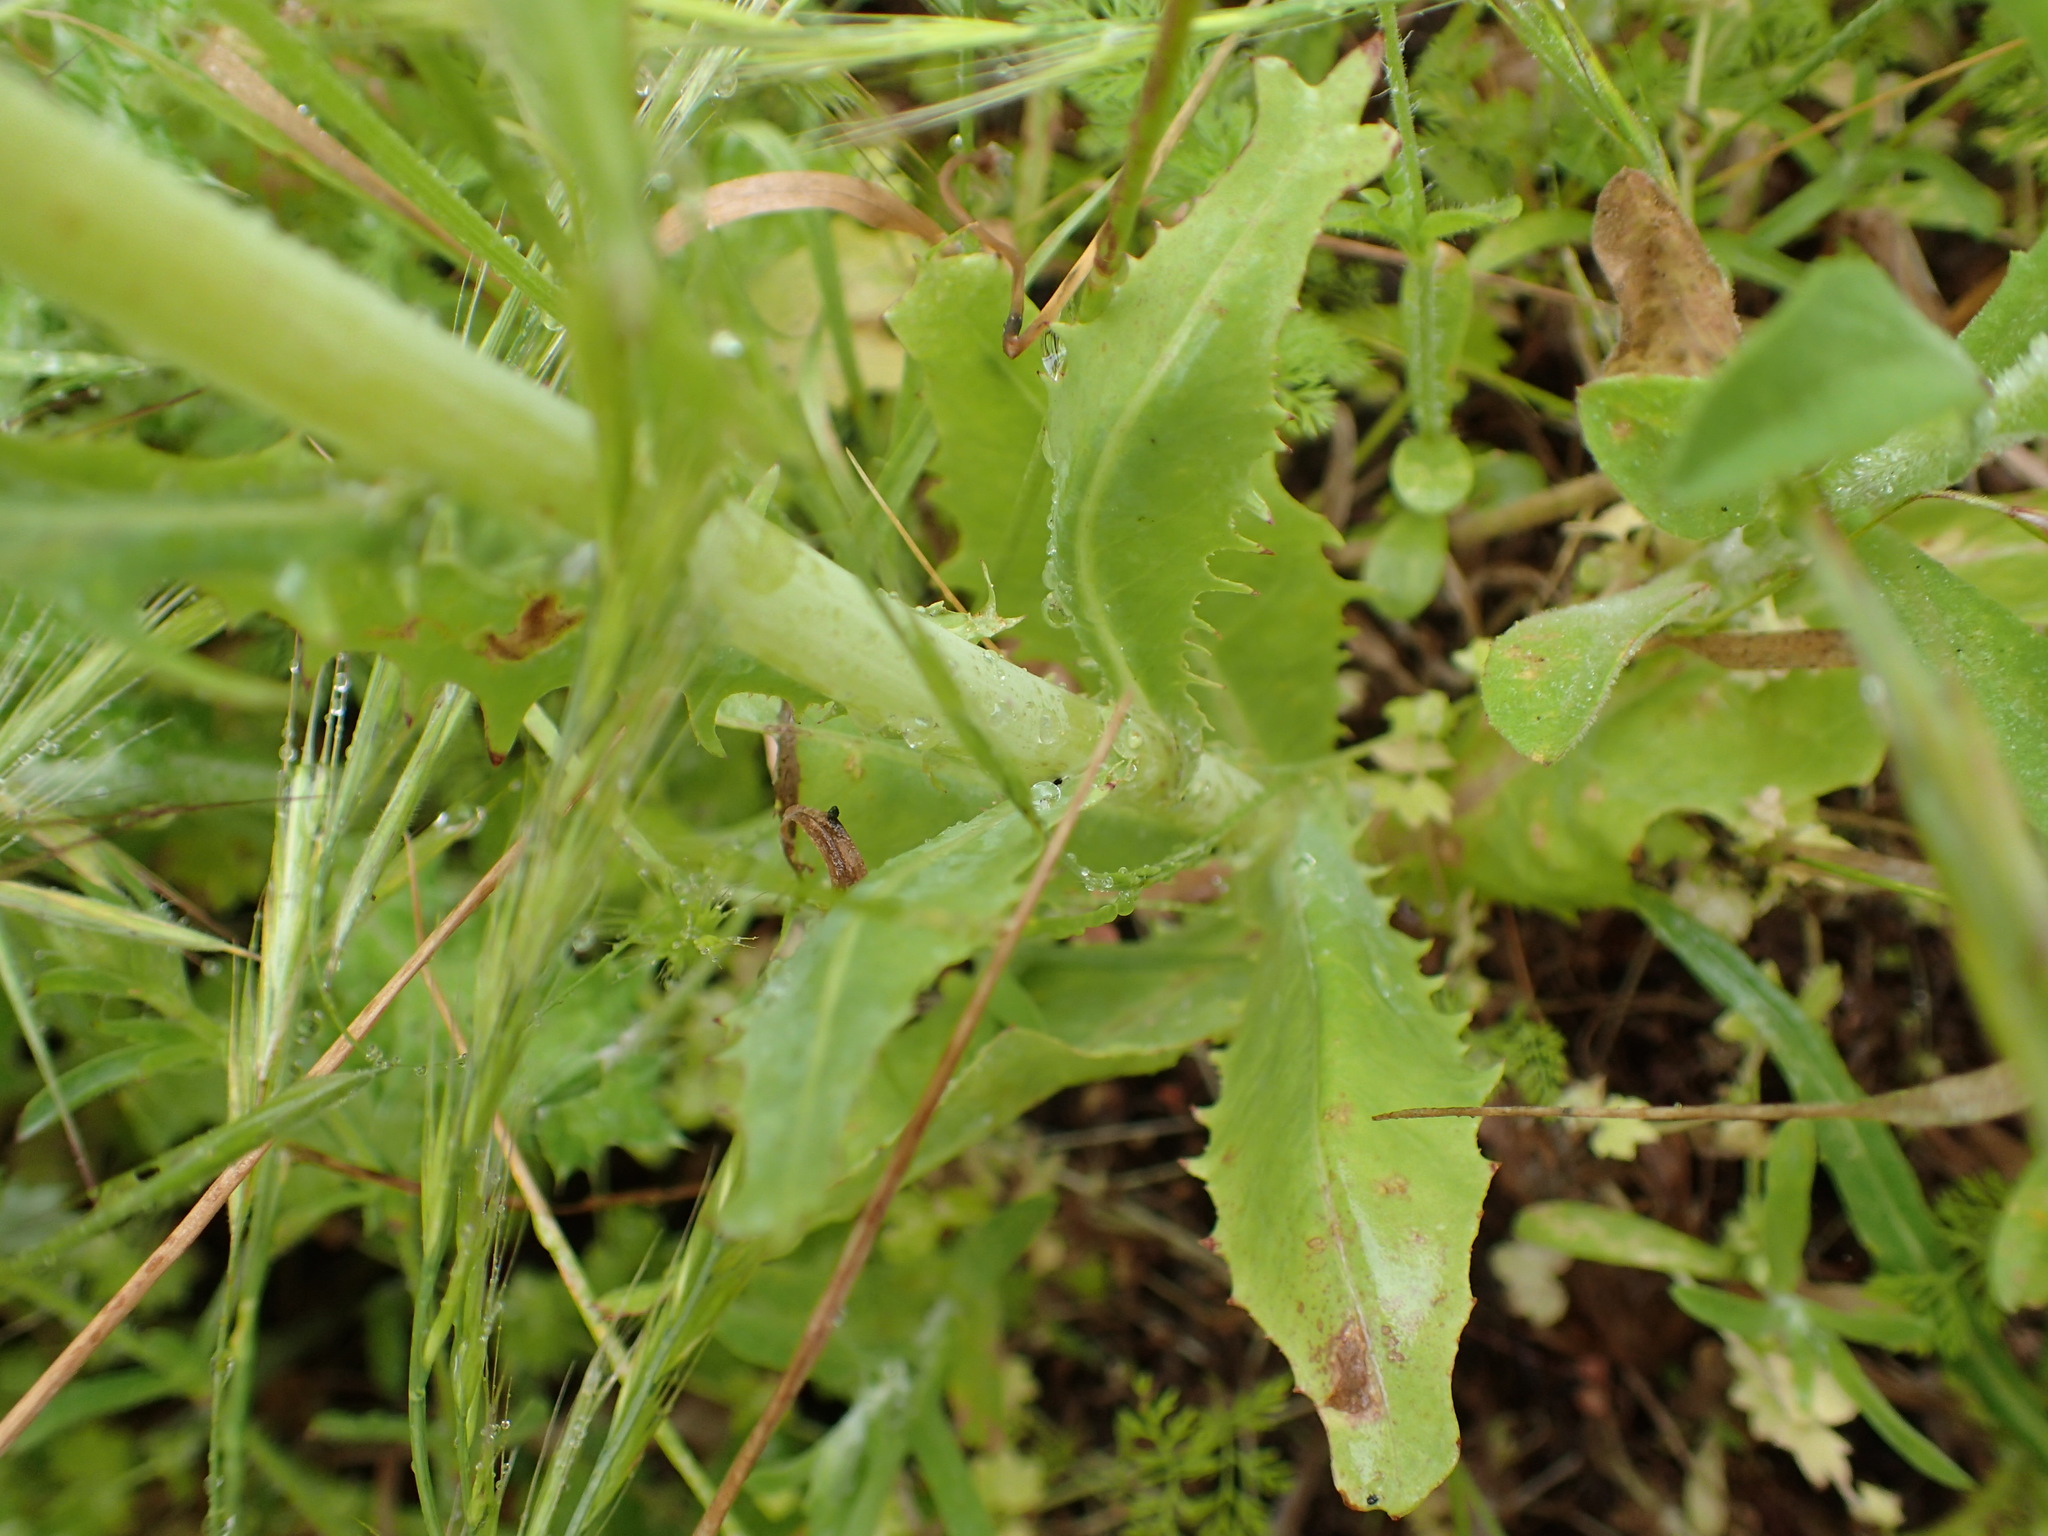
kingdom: Plantae
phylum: Tracheophyta
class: Magnoliopsida
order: Asterales
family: Asteraceae
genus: Rafinesquia
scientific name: Rafinesquia californica
